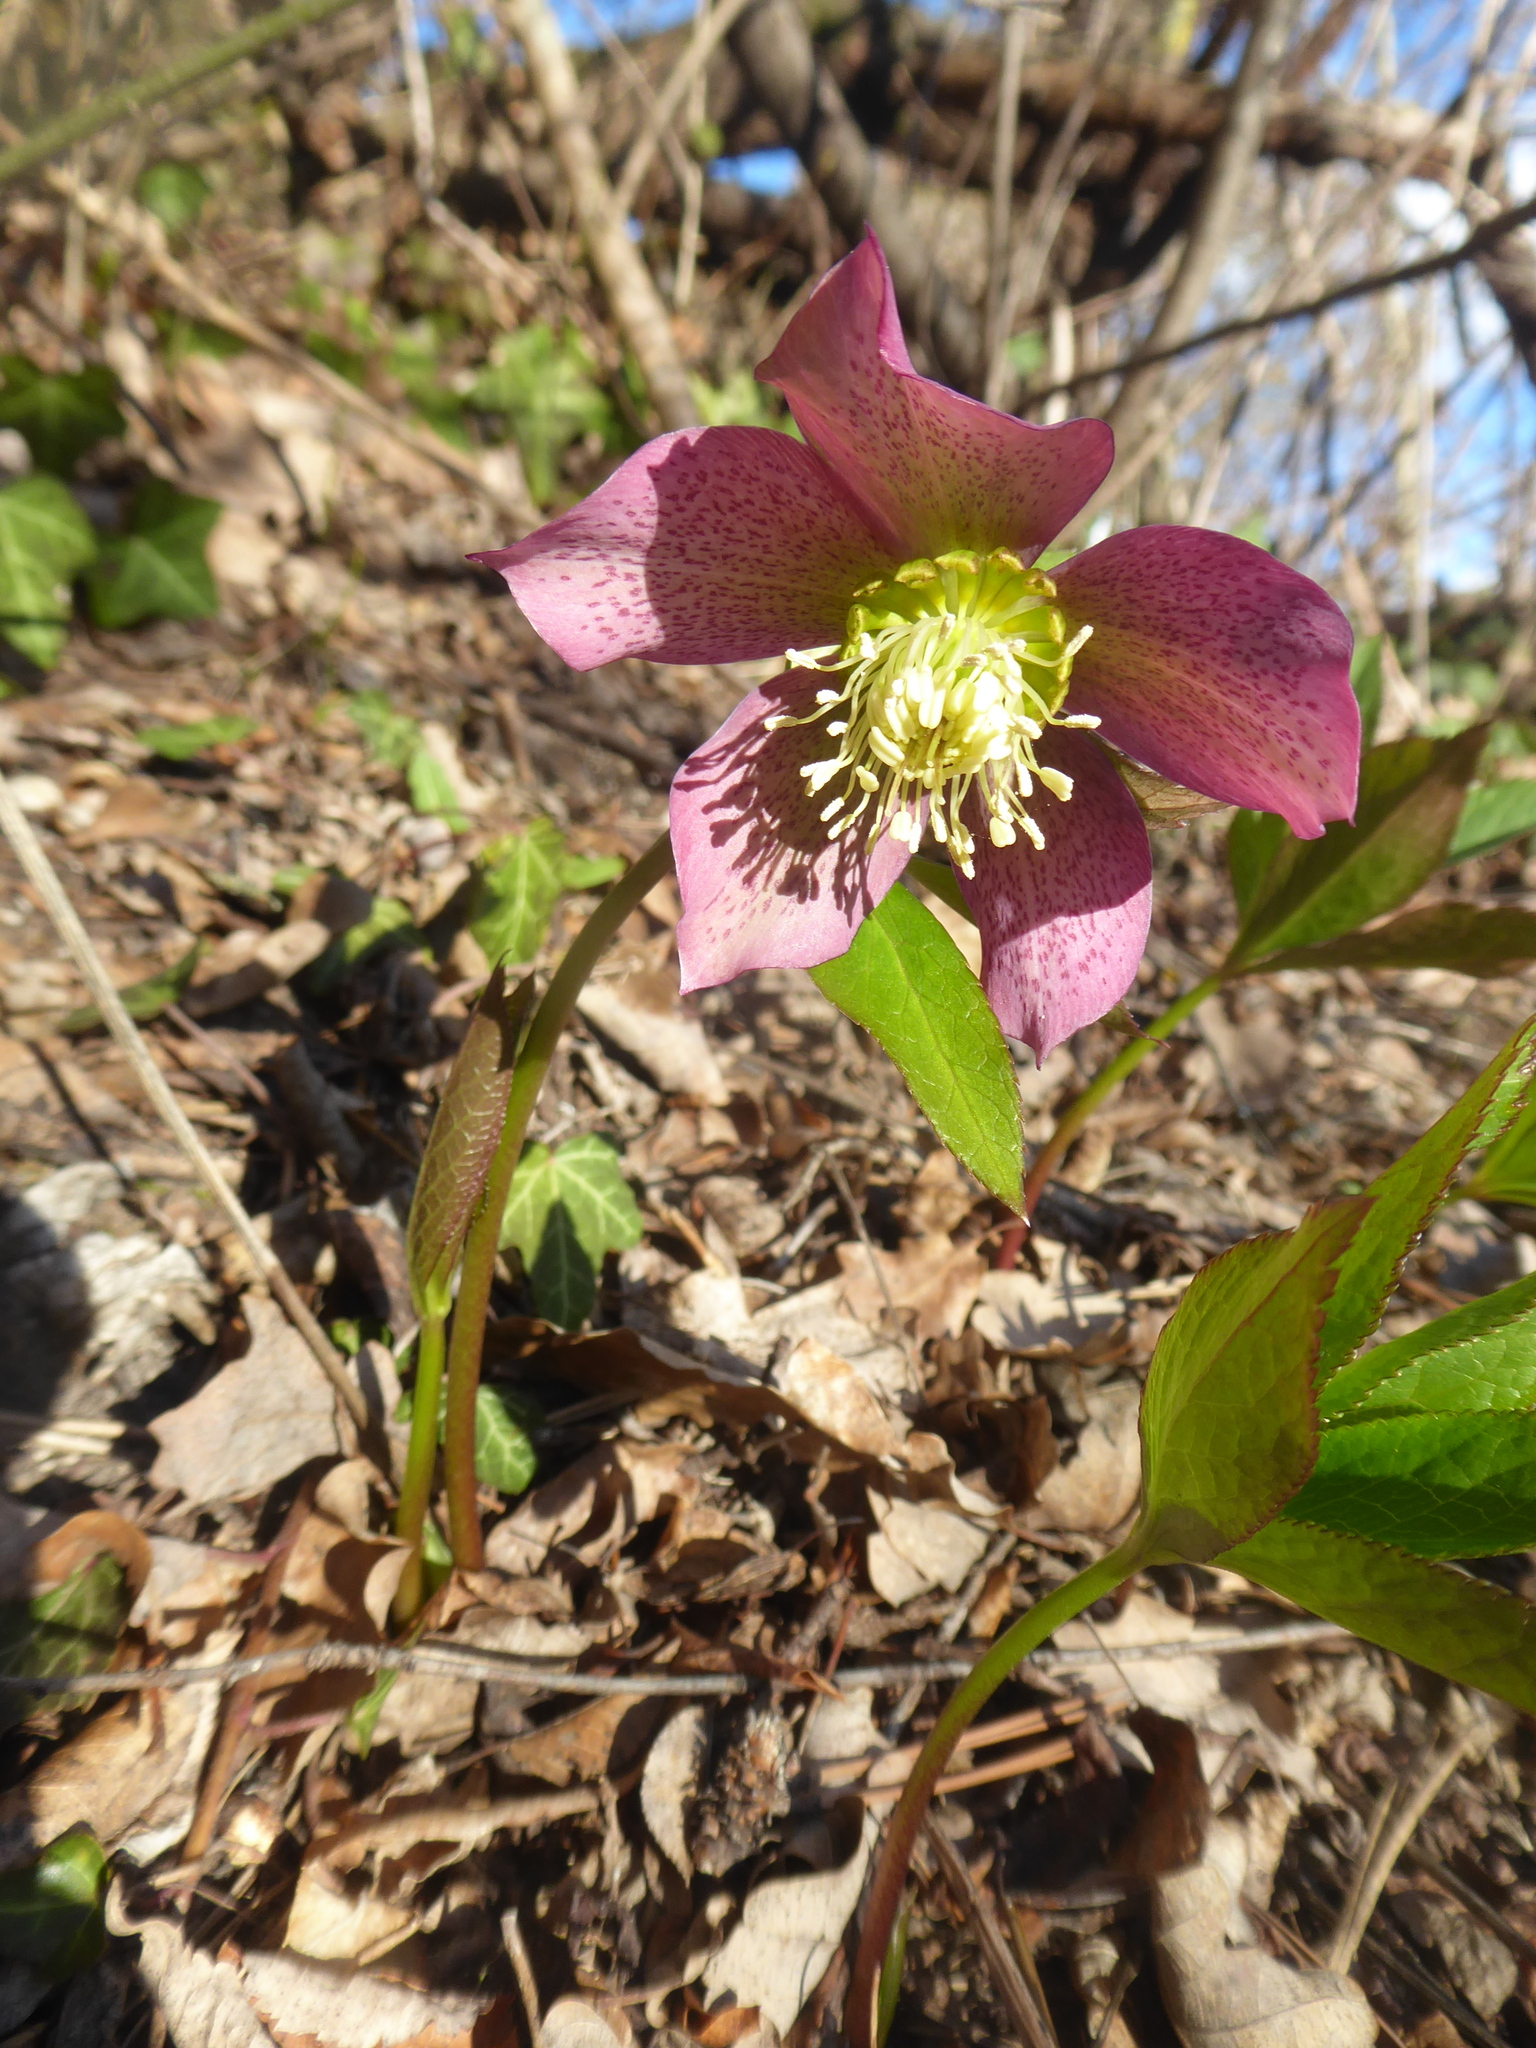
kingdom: Plantae
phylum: Tracheophyta
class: Magnoliopsida
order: Ranunculales
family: Ranunculaceae
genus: Helleborus
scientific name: Helleborus hybridus
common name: Hybrid lenten-rose
